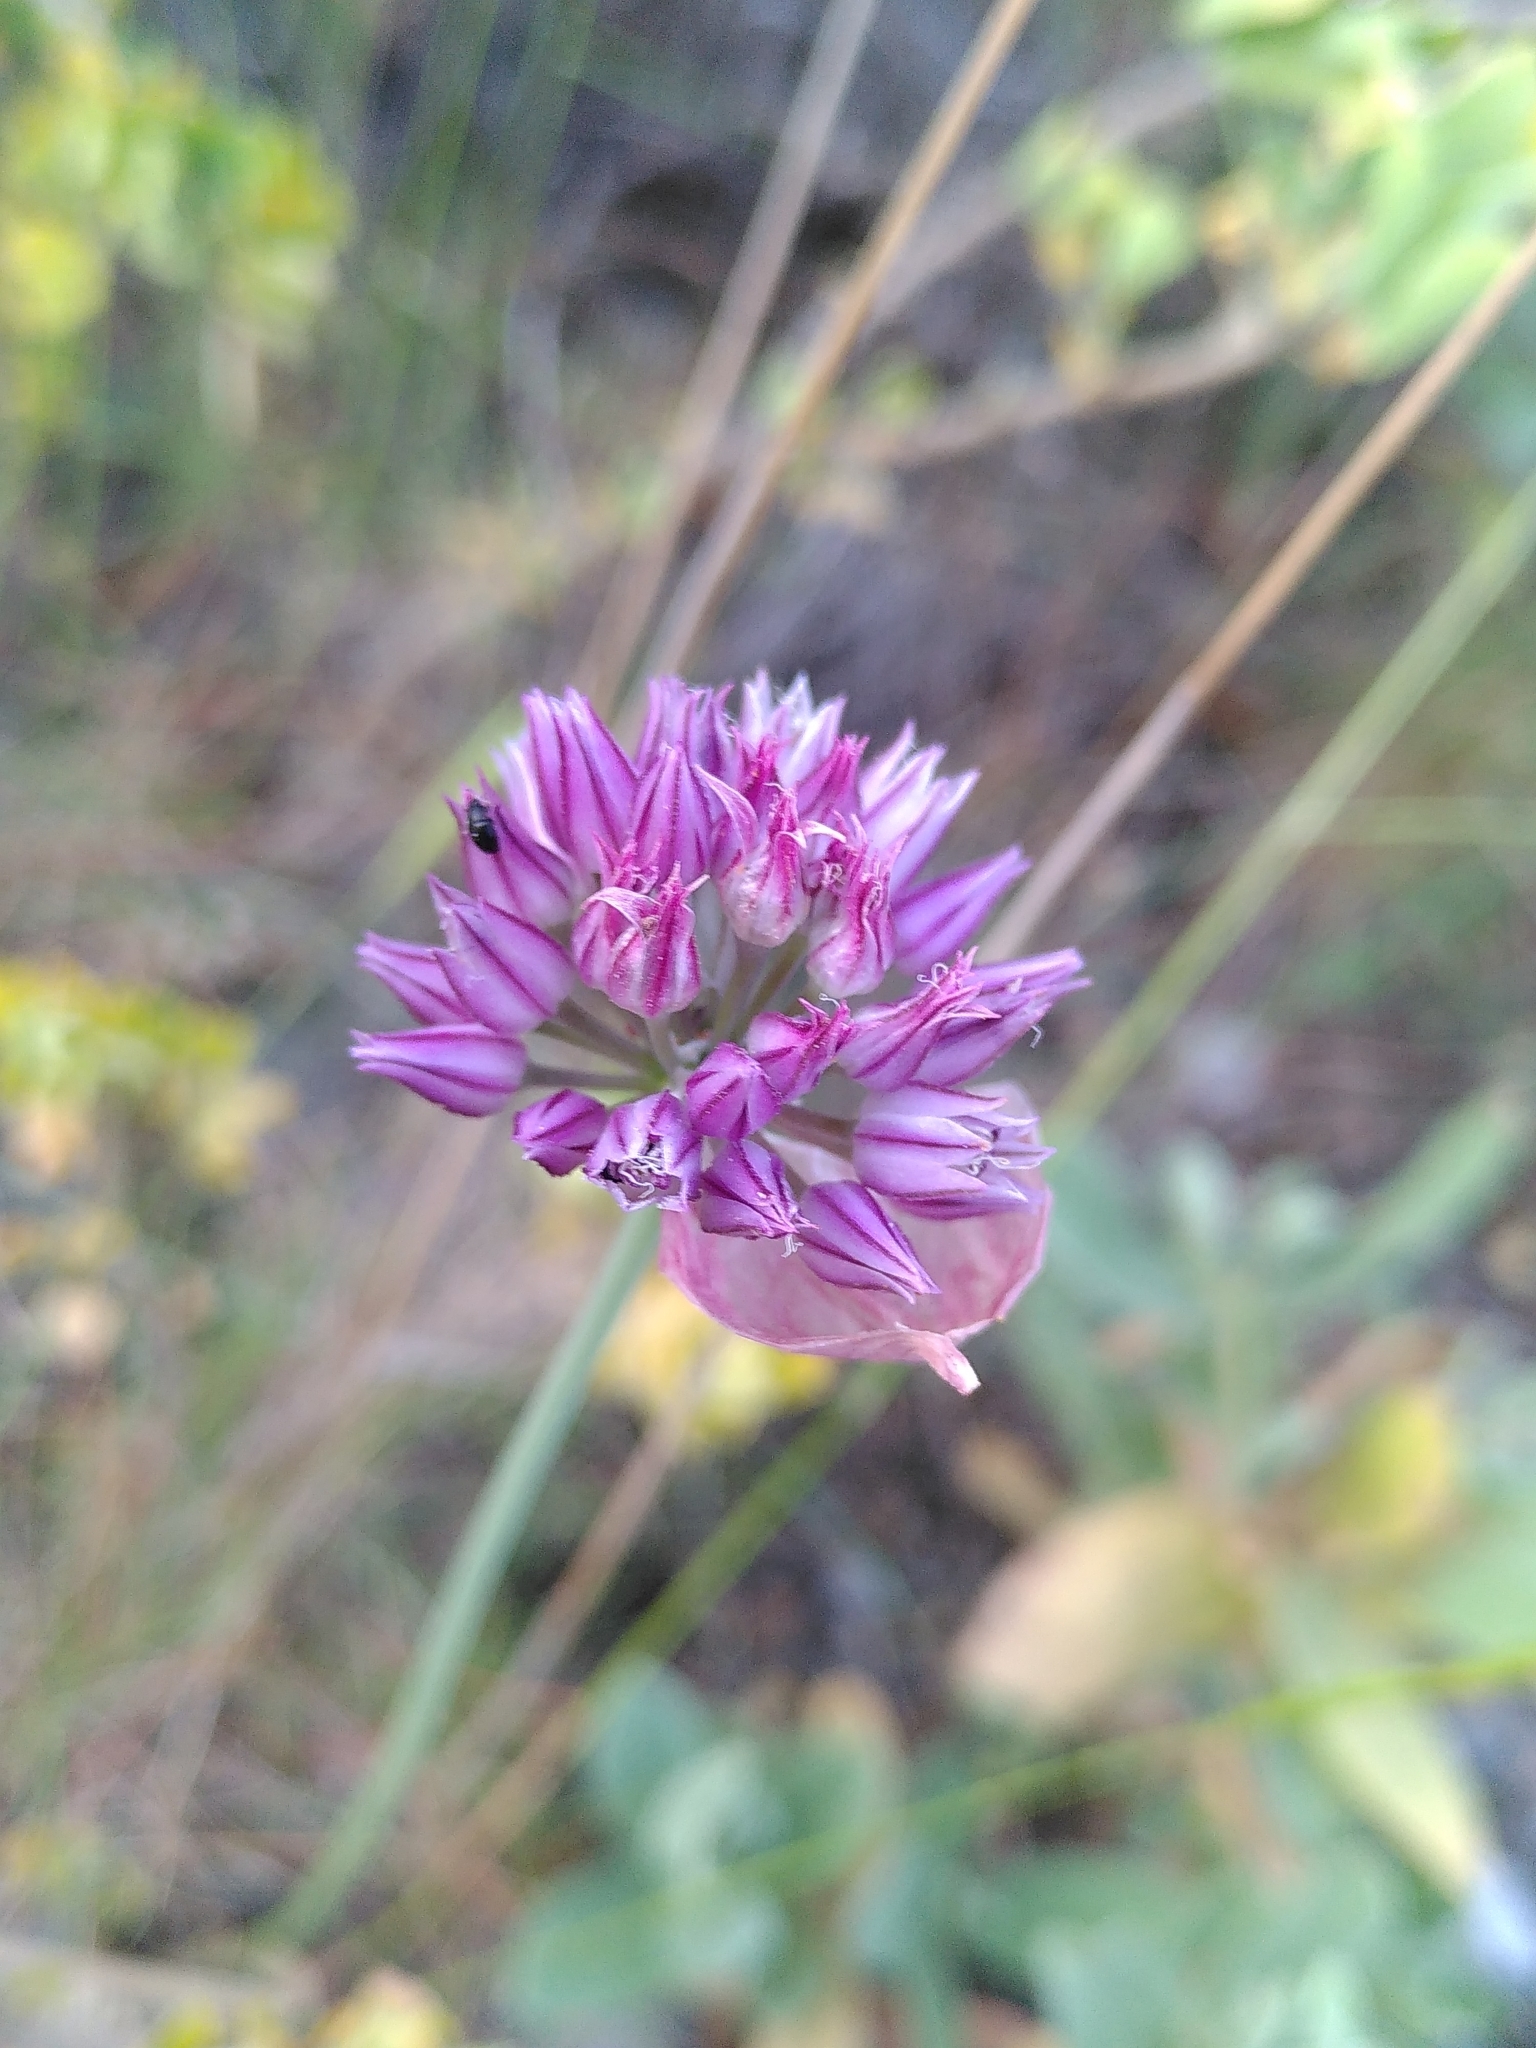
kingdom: Plantae
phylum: Tracheophyta
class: Liliopsida
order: Asparagales
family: Amaryllidaceae
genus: Allium
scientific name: Allium acutiflorum
